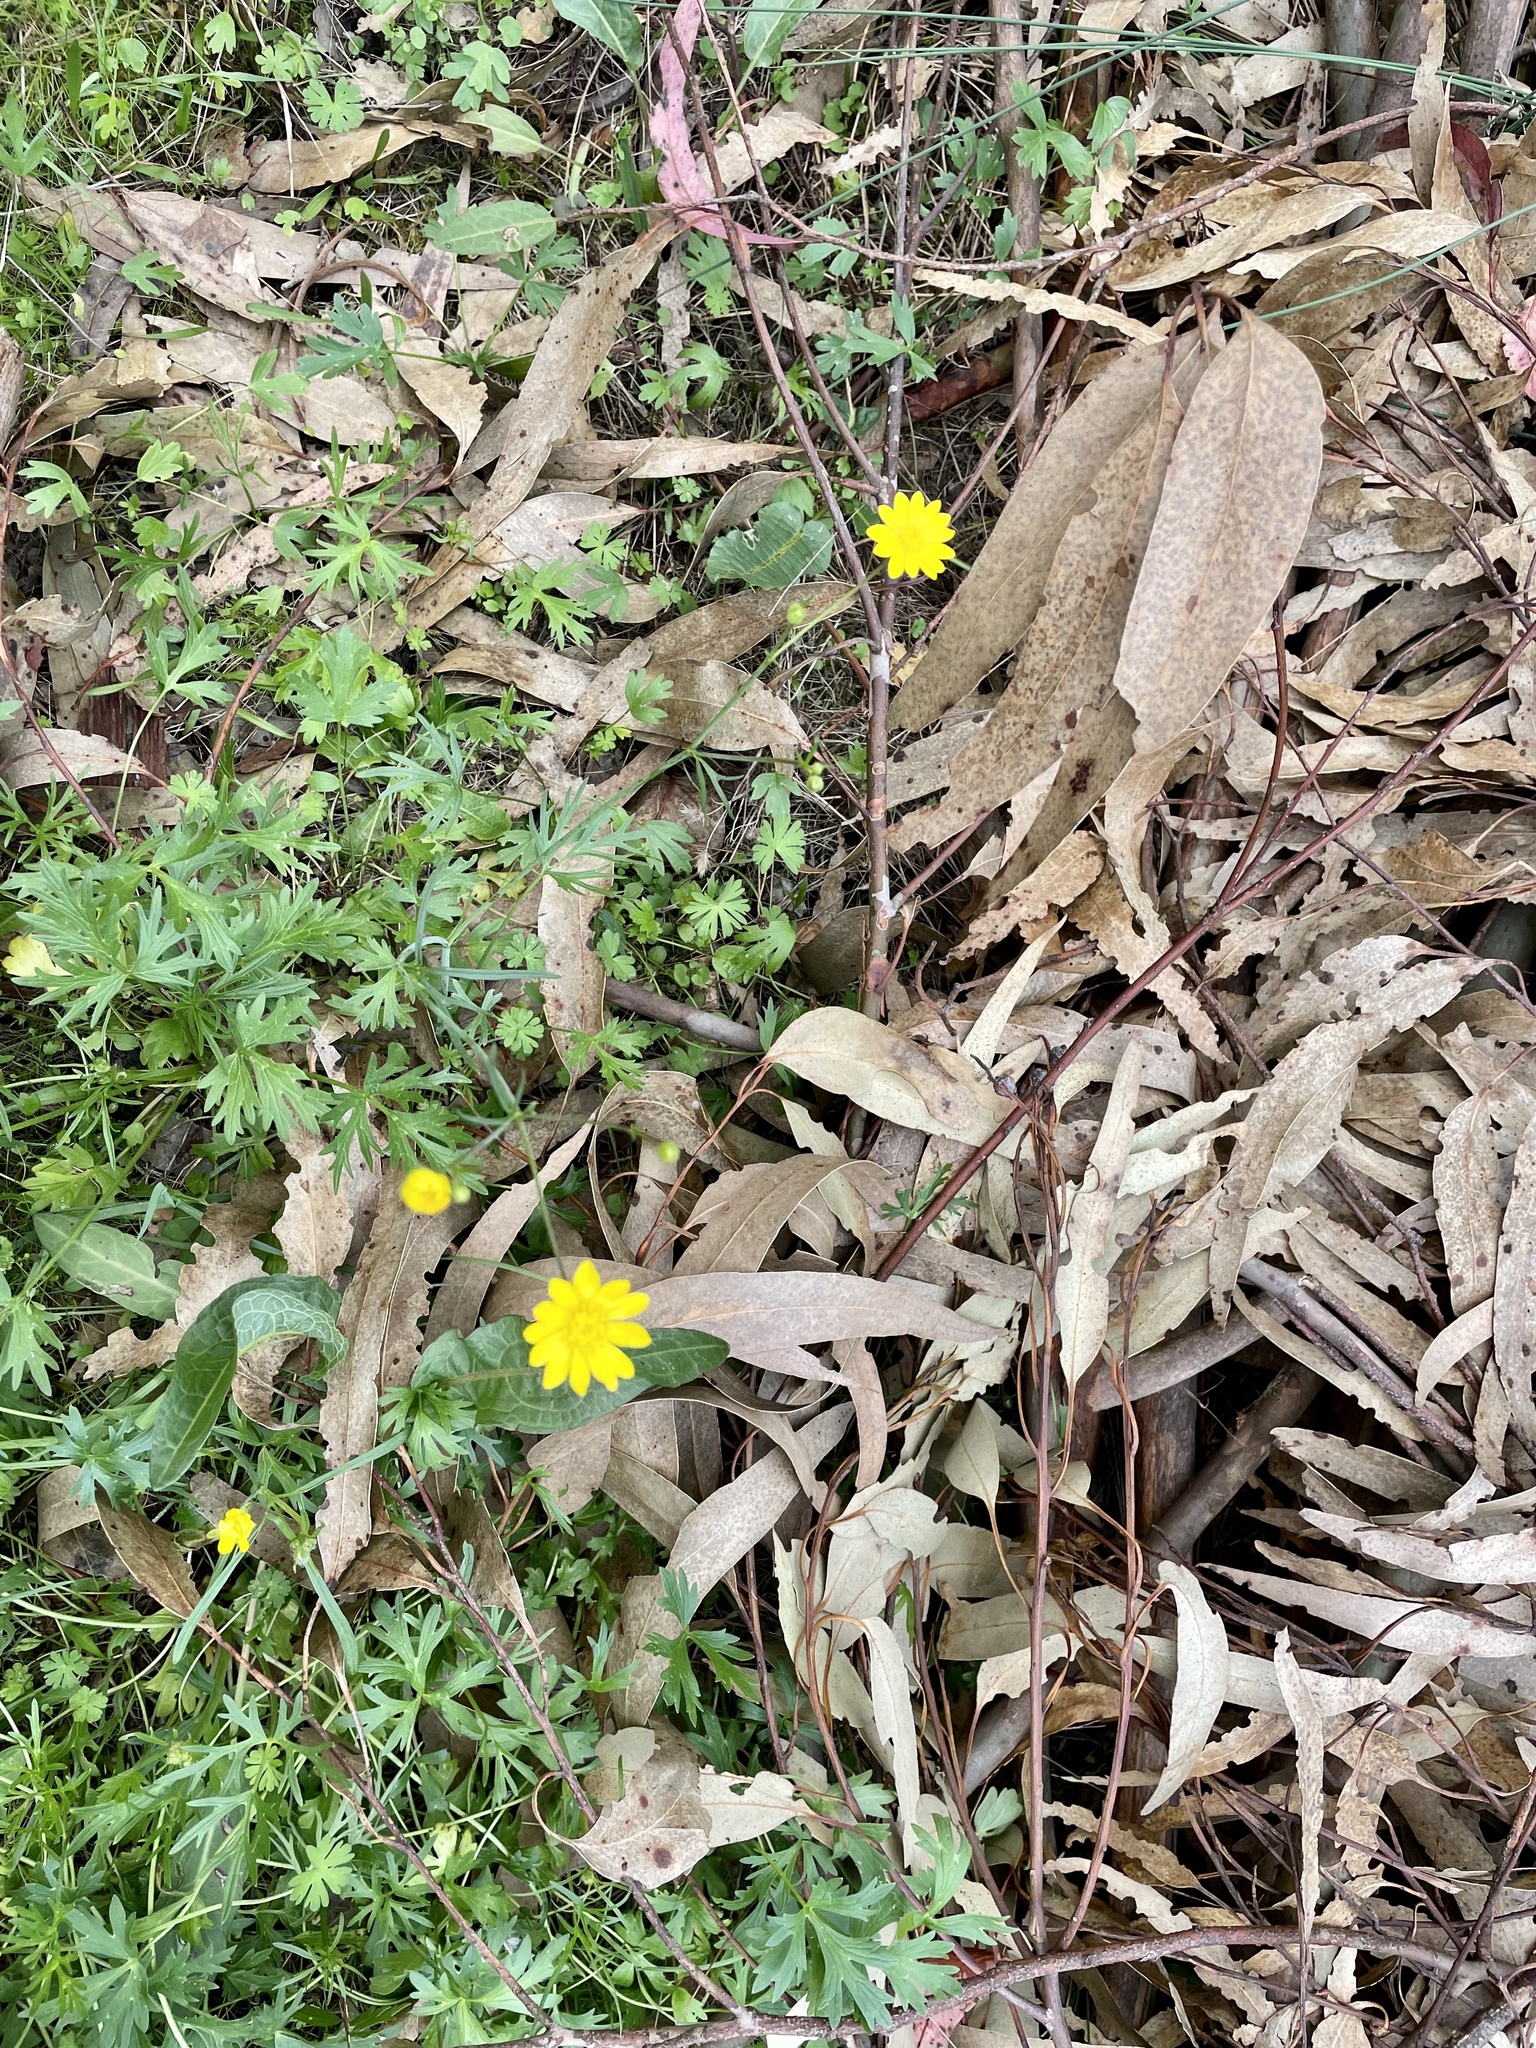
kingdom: Plantae
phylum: Tracheophyta
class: Magnoliopsida
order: Ranunculales
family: Ranunculaceae
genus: Ranunculus
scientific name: Ranunculus californicus
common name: California buttercup
